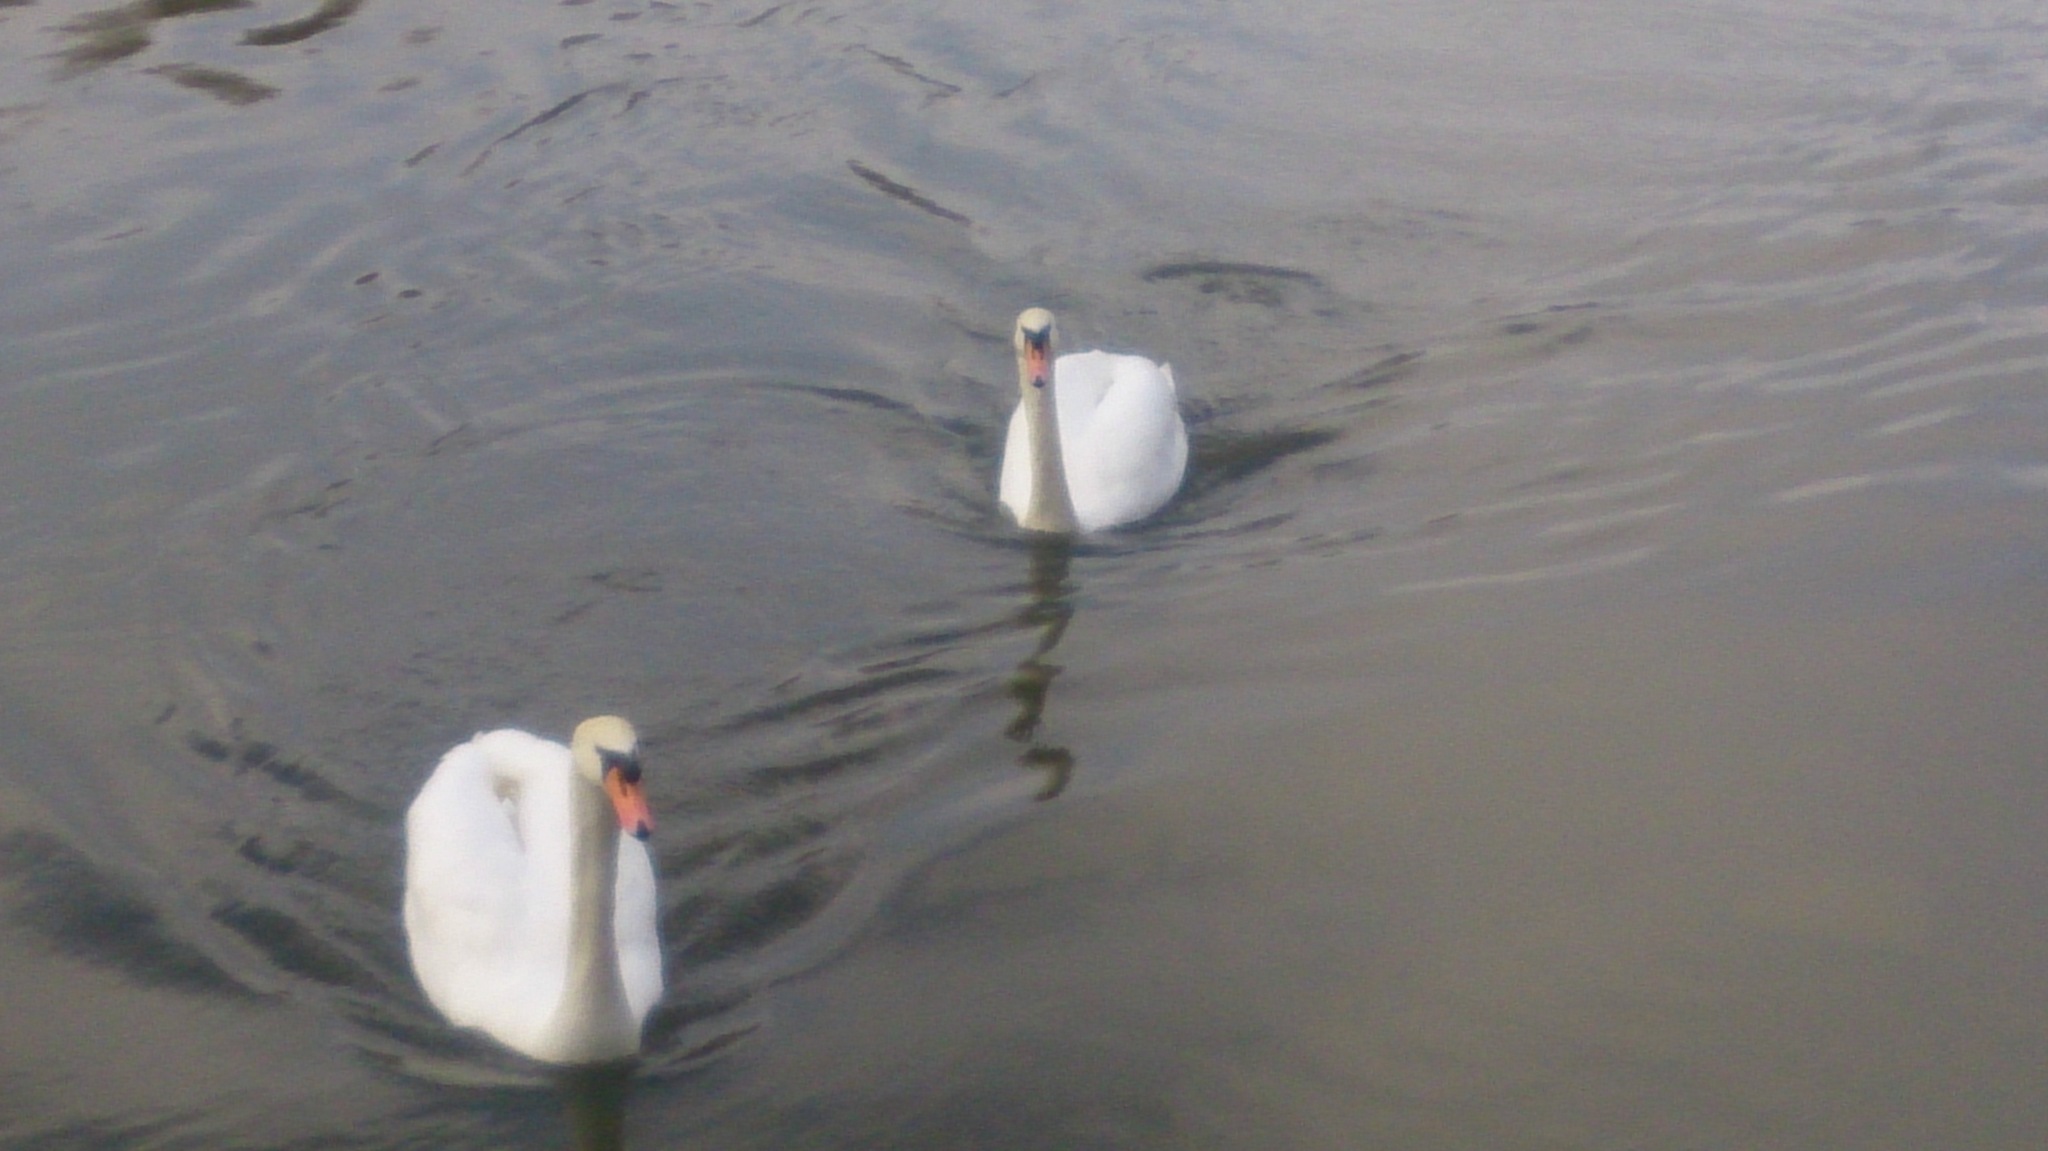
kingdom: Animalia
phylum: Chordata
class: Aves
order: Anseriformes
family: Anatidae
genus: Cygnus
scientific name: Cygnus olor
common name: Mute swan
